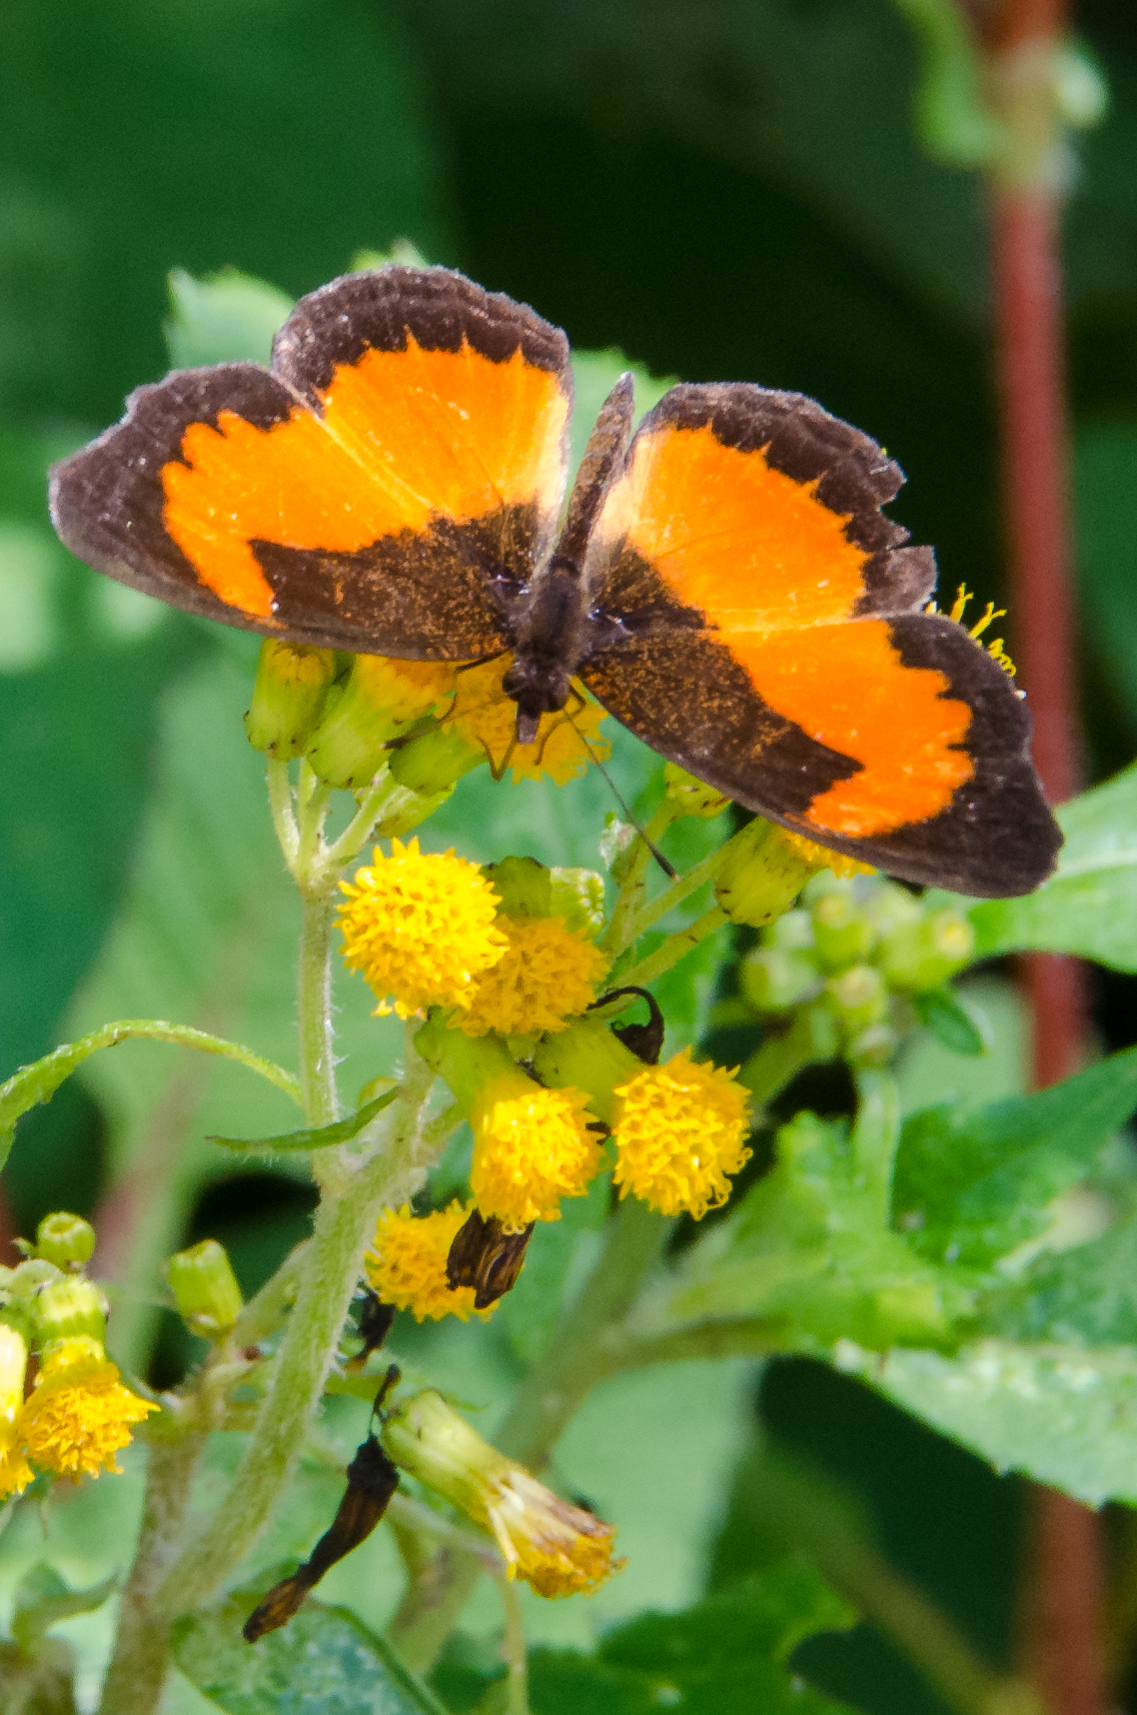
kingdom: Animalia
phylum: Arthropoda
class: Insecta
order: Lepidoptera
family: Nymphalidae
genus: Vanessula
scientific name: Vanessula milea
